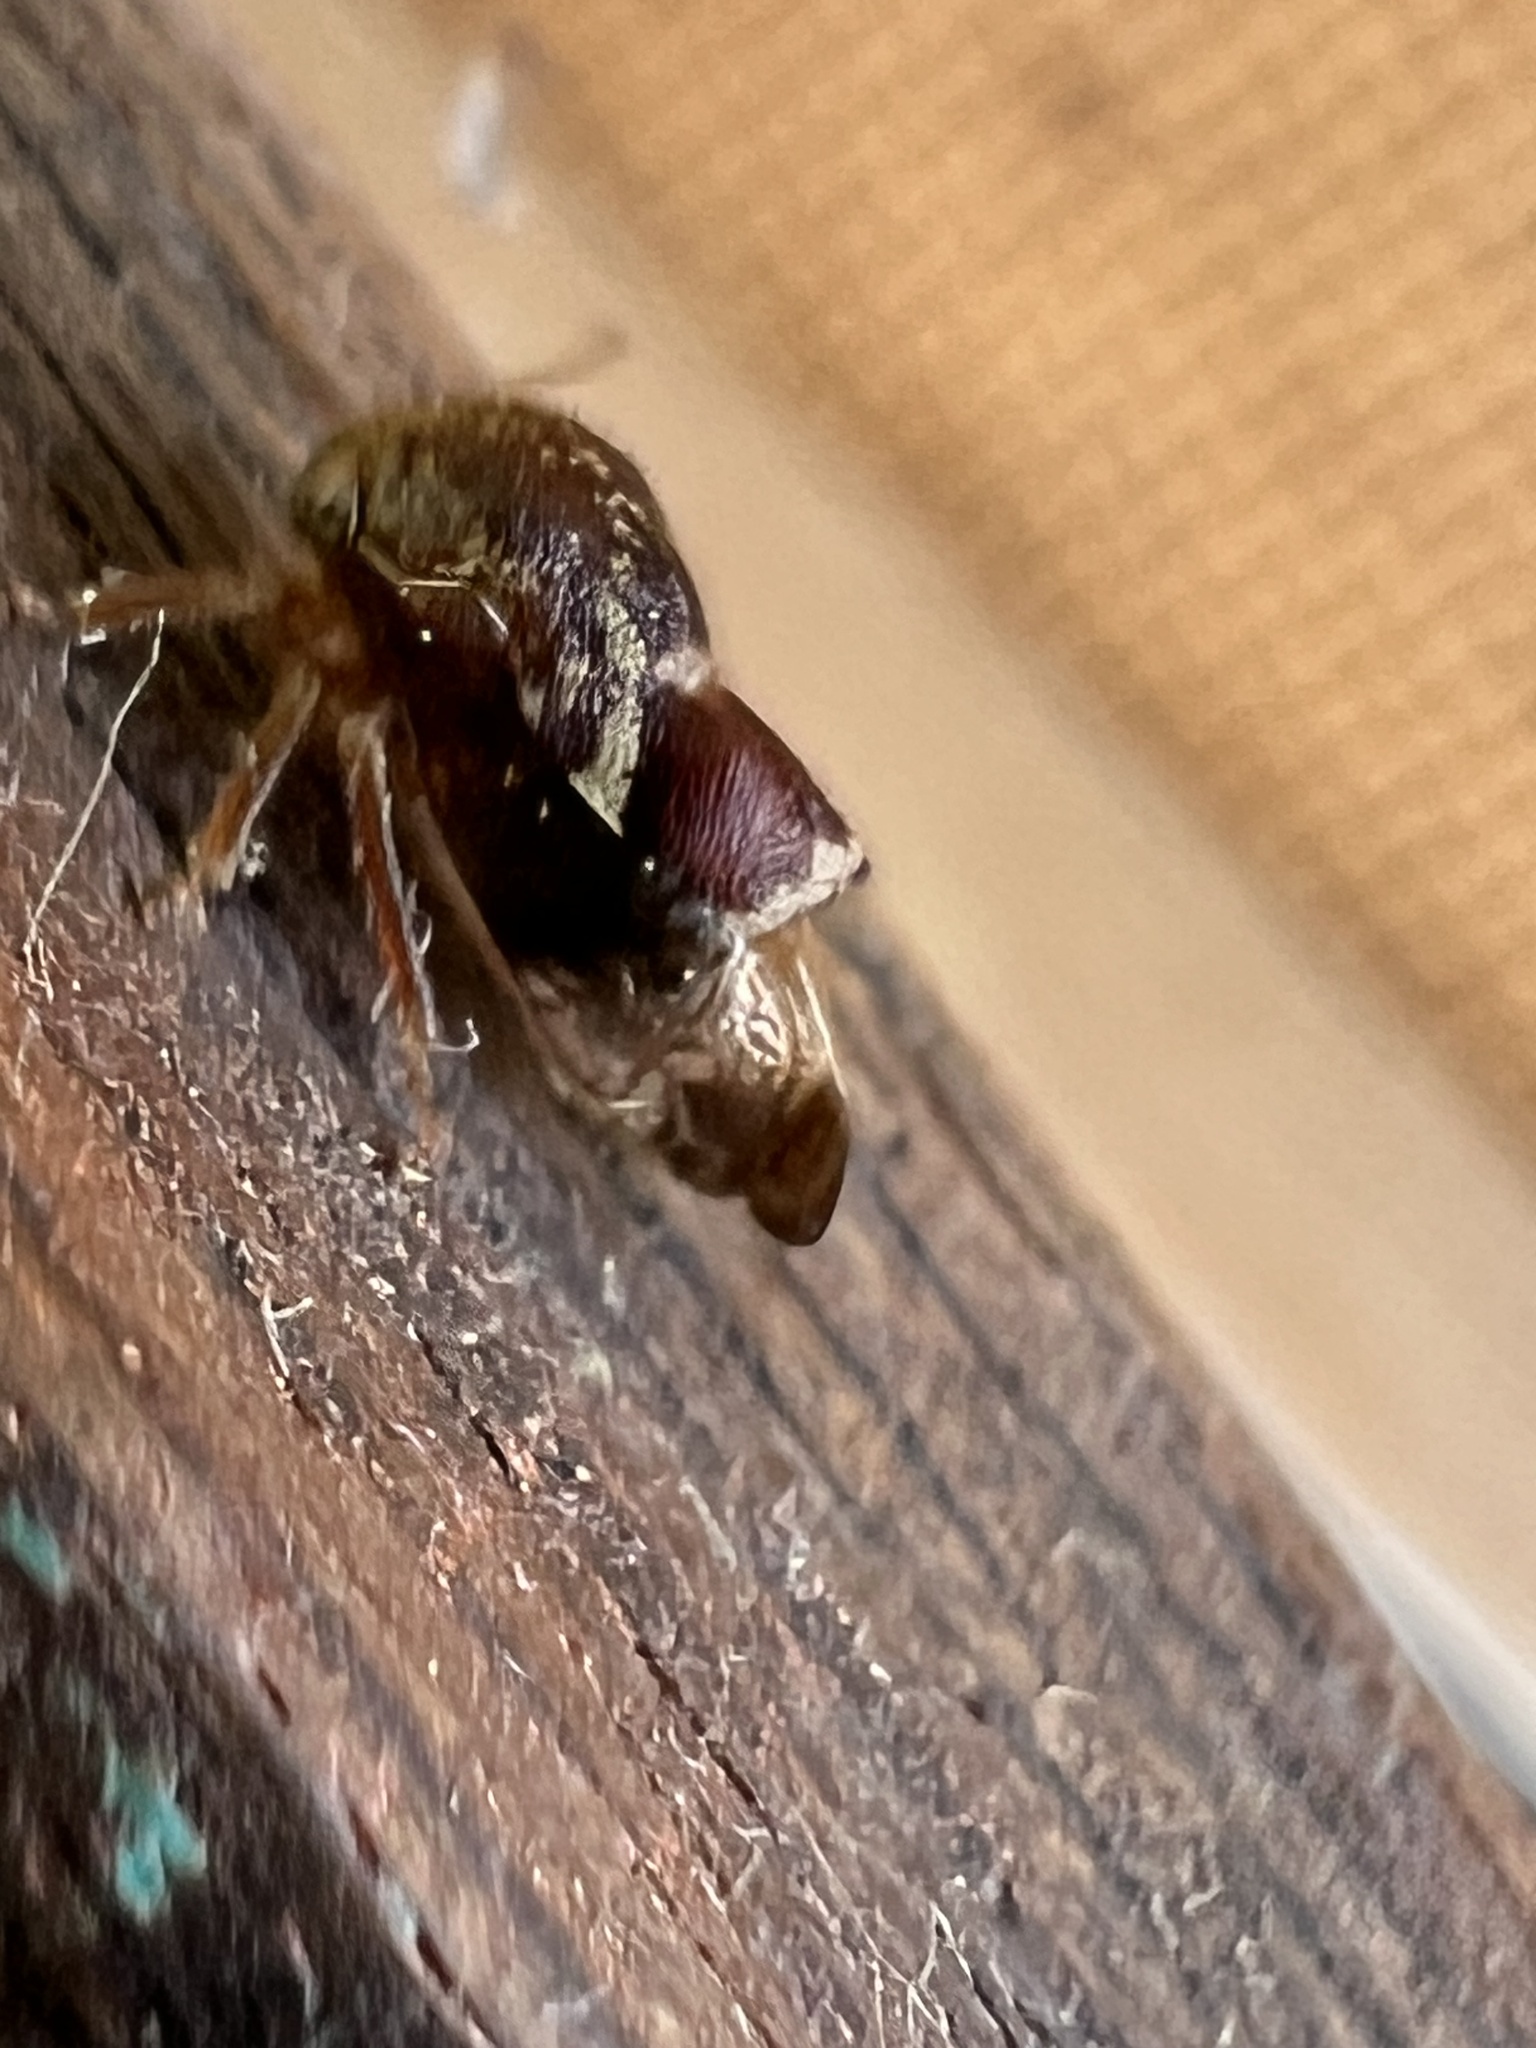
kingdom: Animalia
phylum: Arthropoda
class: Insecta
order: Hemiptera
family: Membracidae
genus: Ophiderma
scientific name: Ophiderma evelyna
